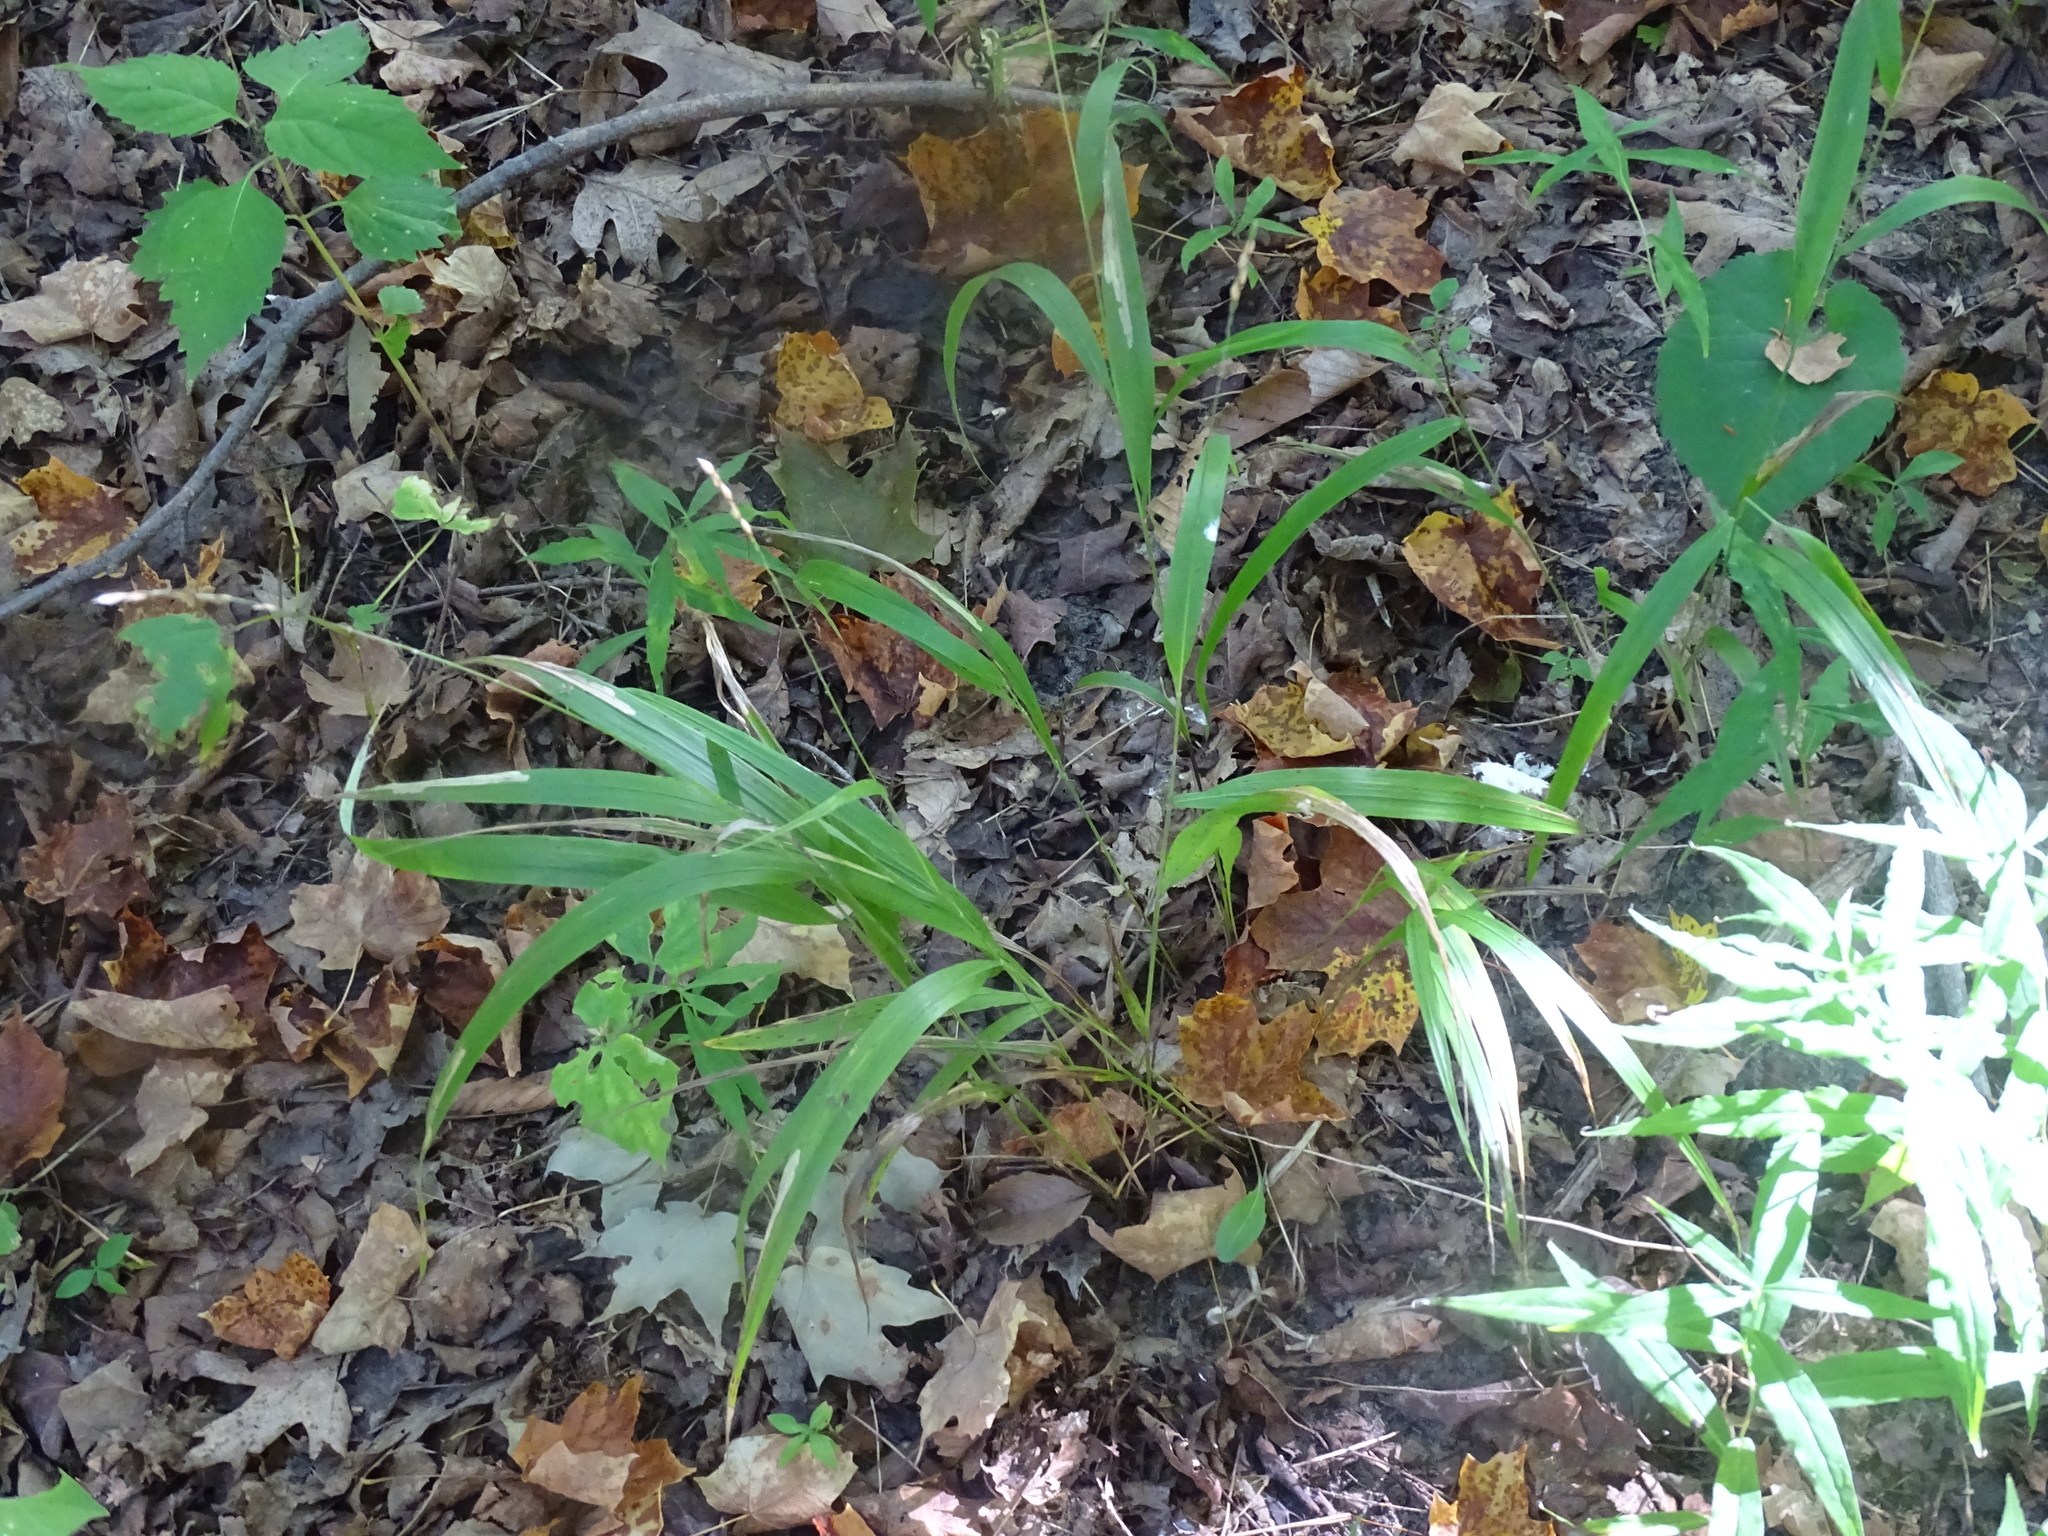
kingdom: Plantae
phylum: Tracheophyta
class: Liliopsida
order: Poales
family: Poaceae
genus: Patis
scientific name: Patis racemosa
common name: Black-fruited mountain rice
